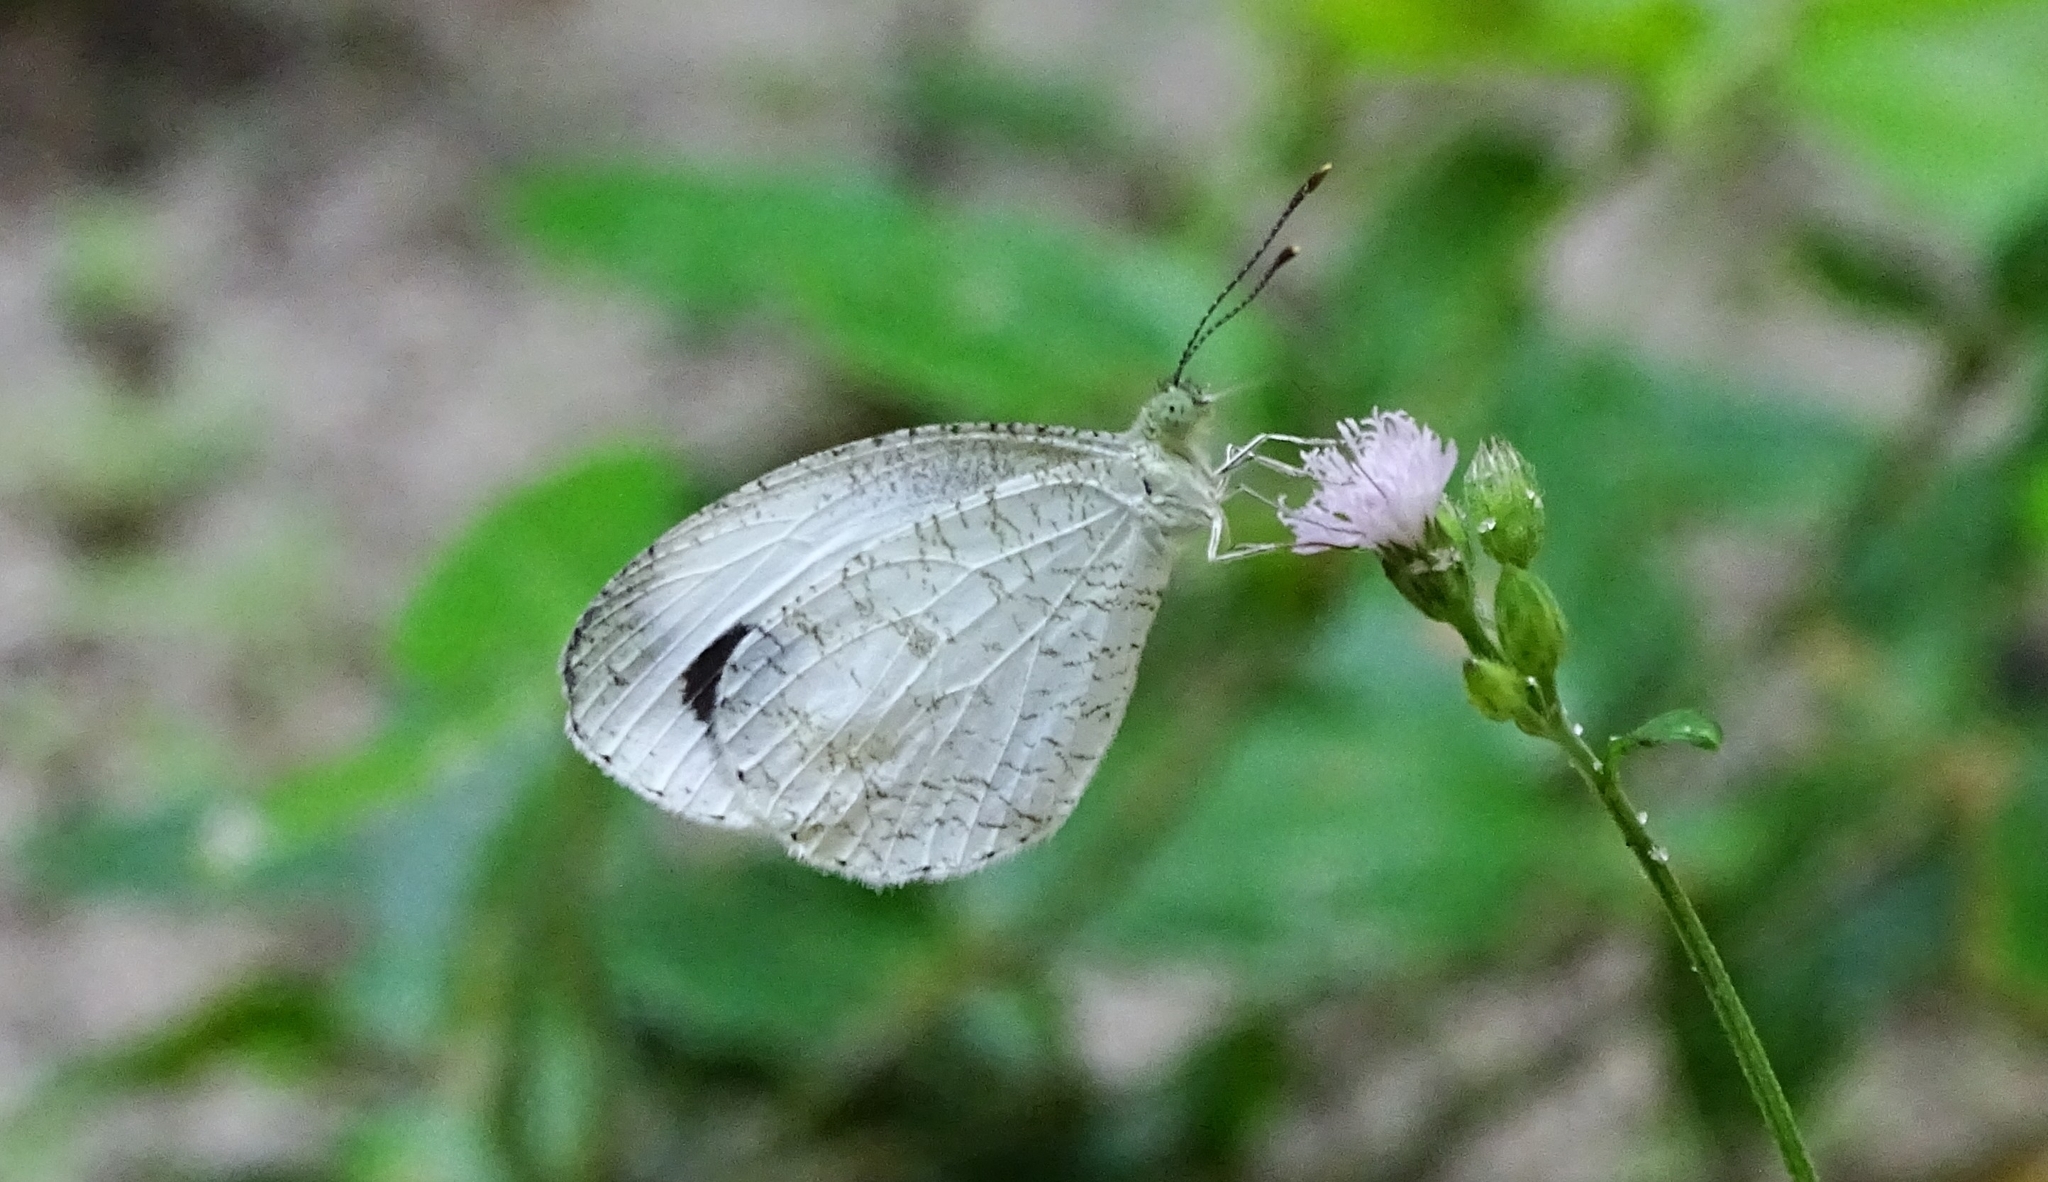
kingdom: Animalia
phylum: Arthropoda
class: Insecta
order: Lepidoptera
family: Pieridae
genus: Leptosia
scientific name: Leptosia nina
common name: Psyche
